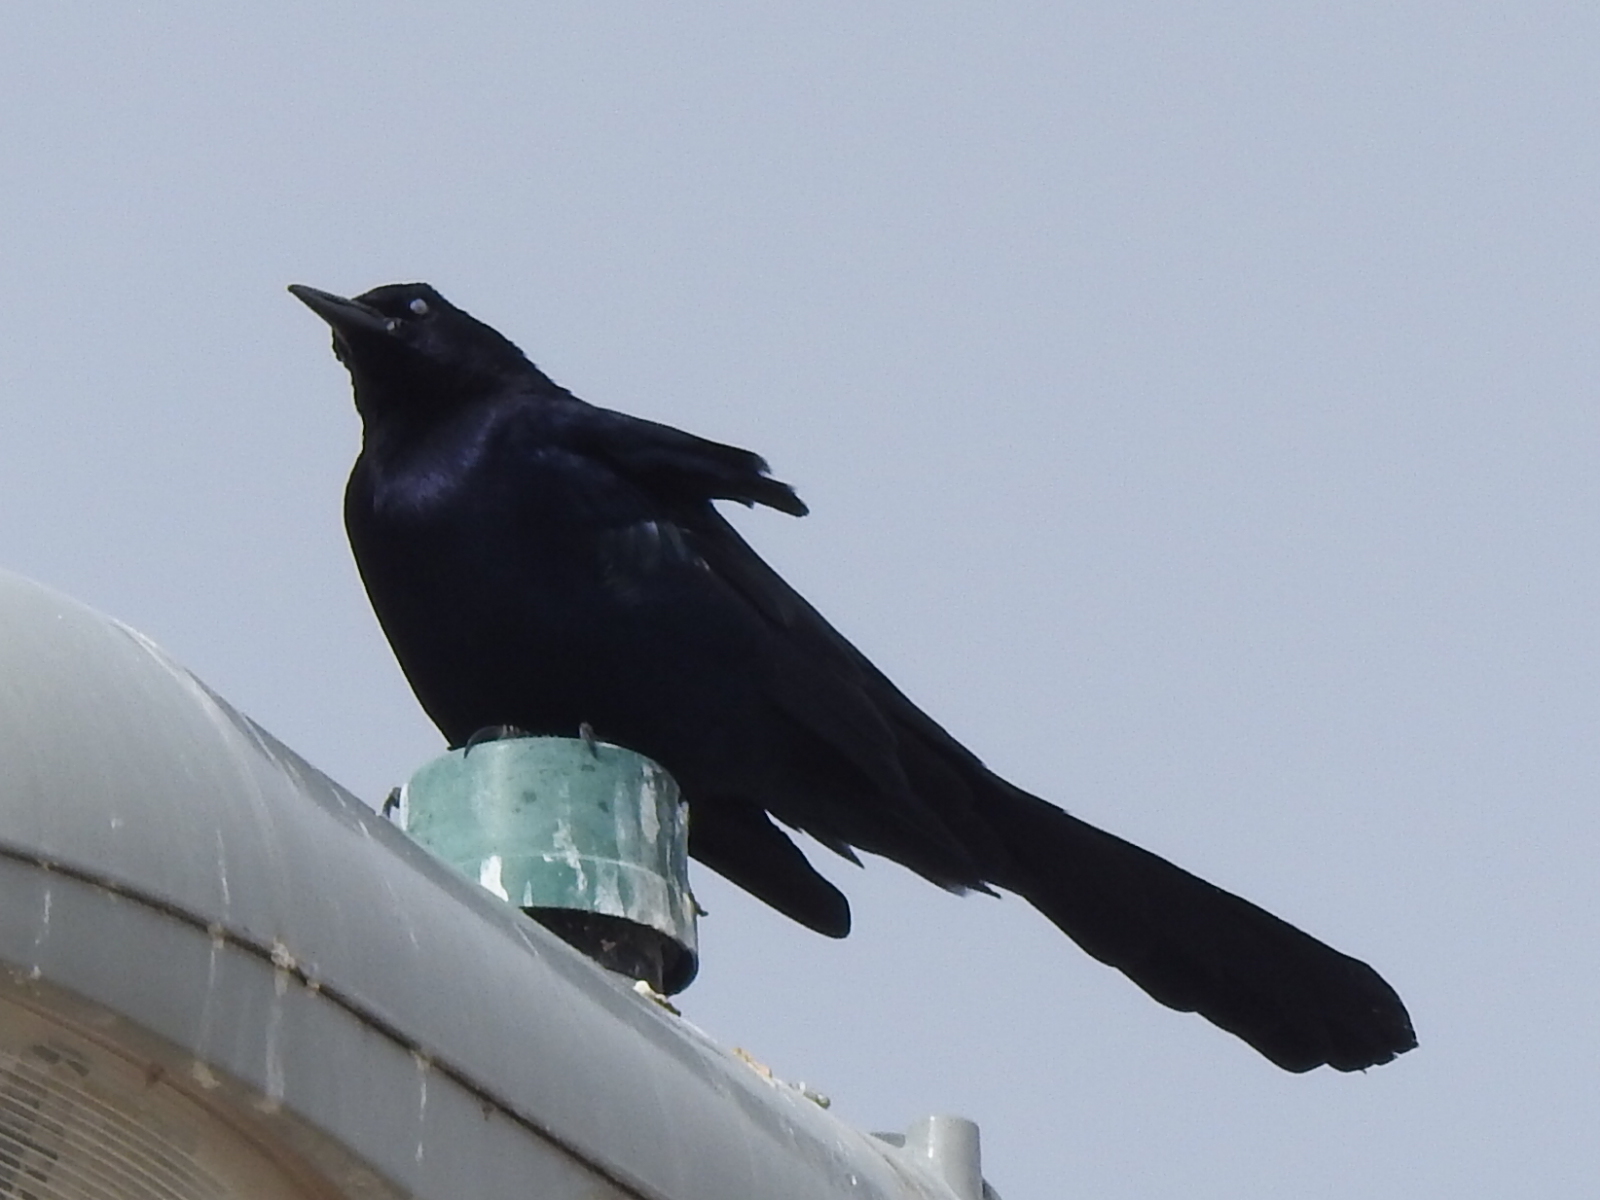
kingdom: Animalia
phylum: Chordata
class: Aves
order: Passeriformes
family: Icteridae
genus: Quiscalus
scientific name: Quiscalus mexicanus
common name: Great-tailed grackle
